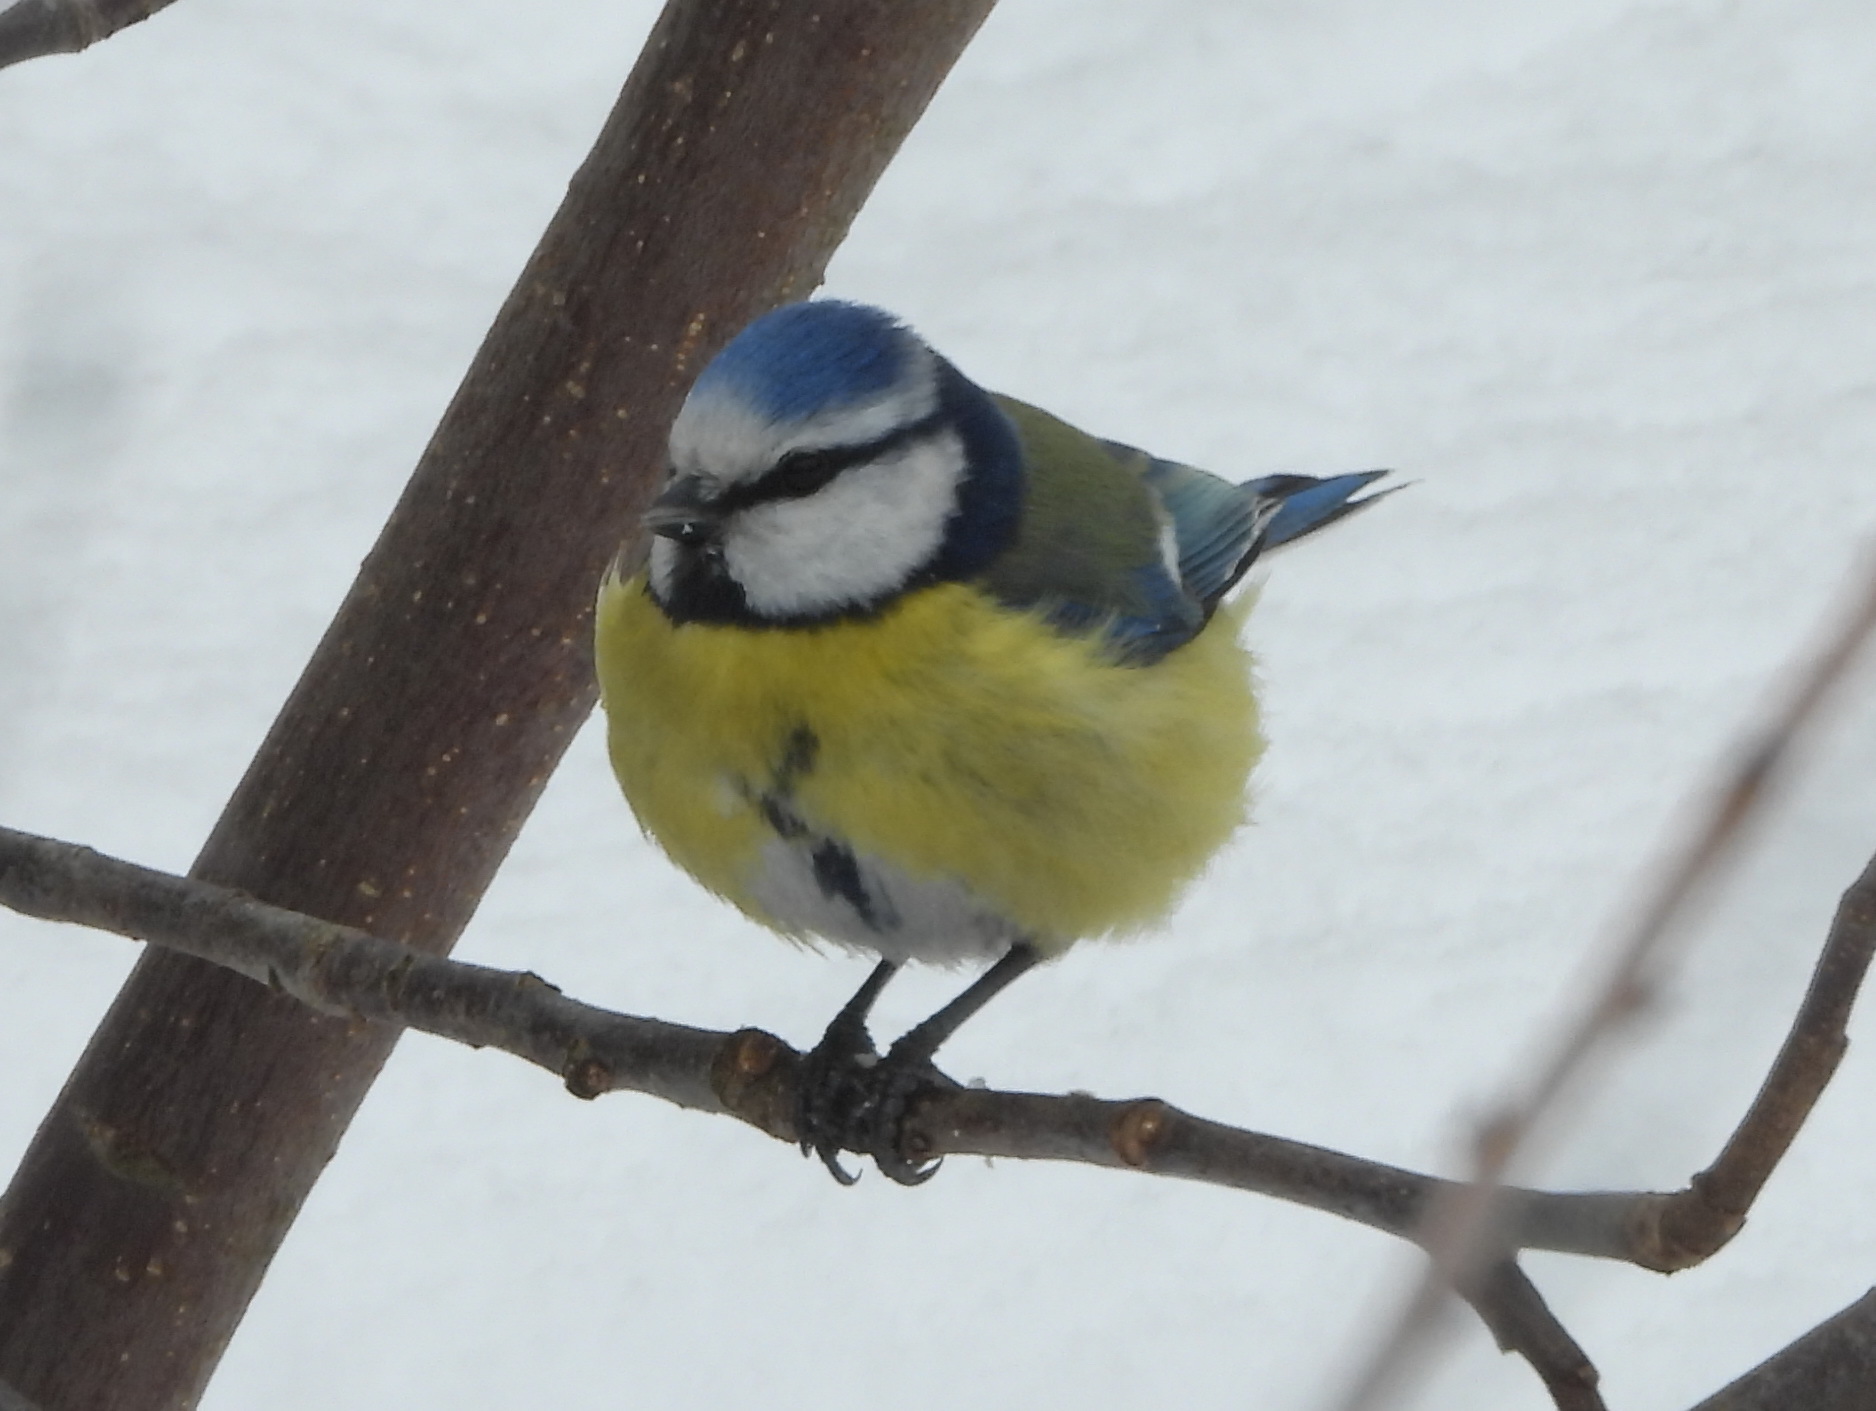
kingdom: Animalia
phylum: Chordata
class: Aves
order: Passeriformes
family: Paridae
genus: Cyanistes
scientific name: Cyanistes caeruleus
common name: Eurasian blue tit
